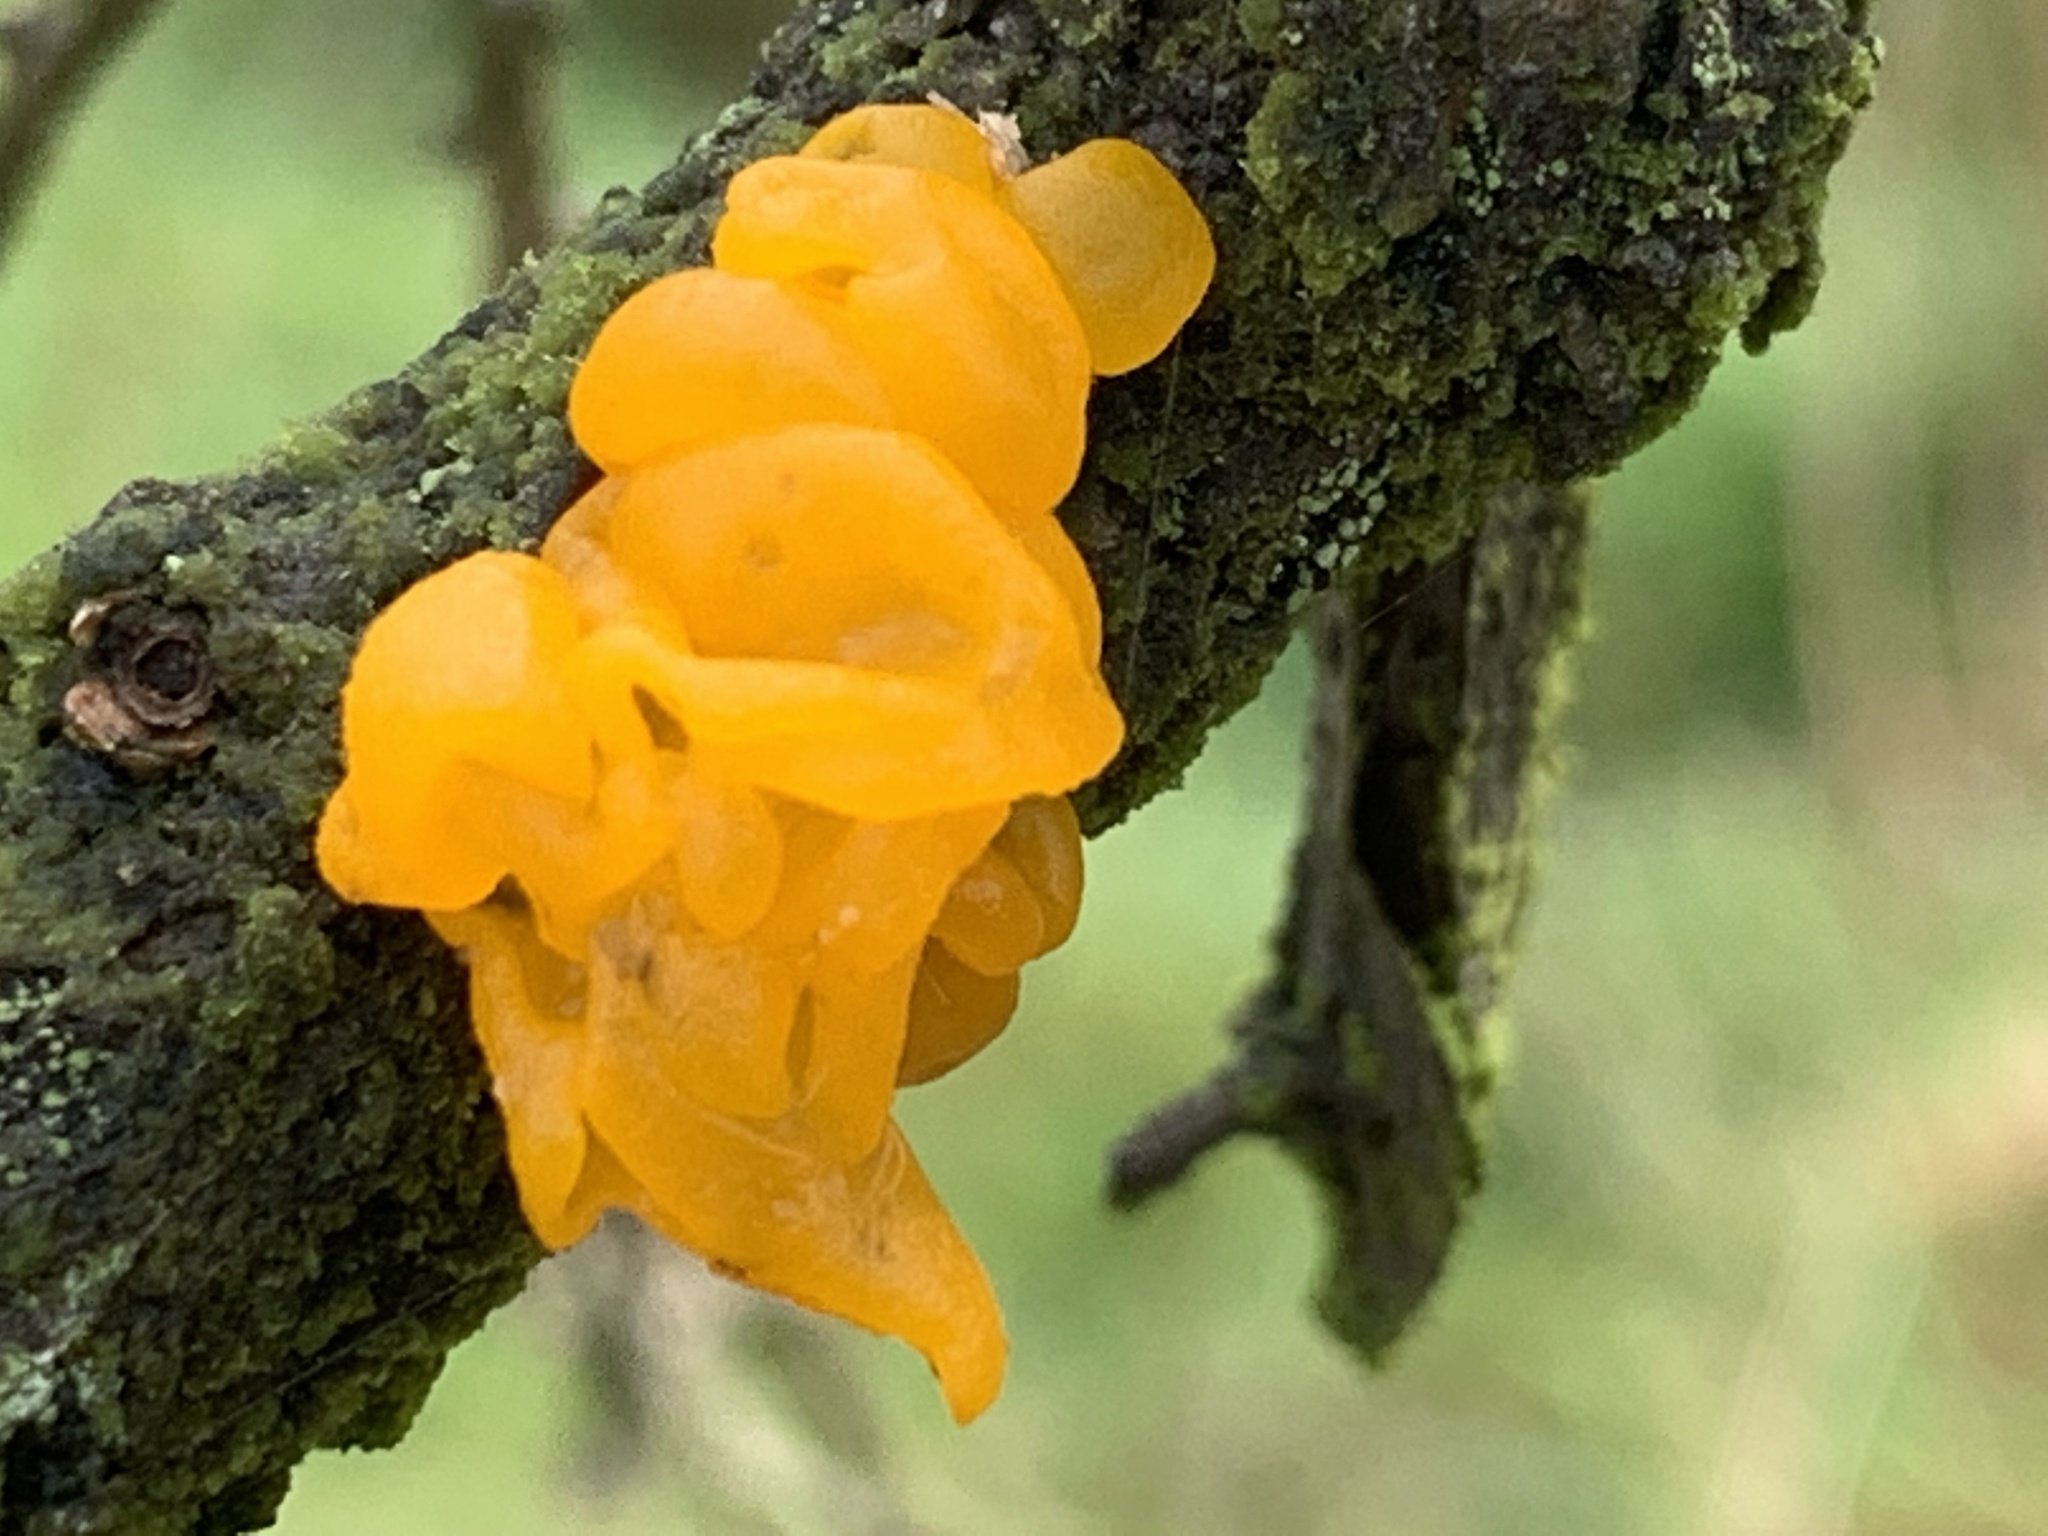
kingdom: Fungi
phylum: Basidiomycota
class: Tremellomycetes
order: Tremellales
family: Tremellaceae
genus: Tremella
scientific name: Tremella mesenterica
